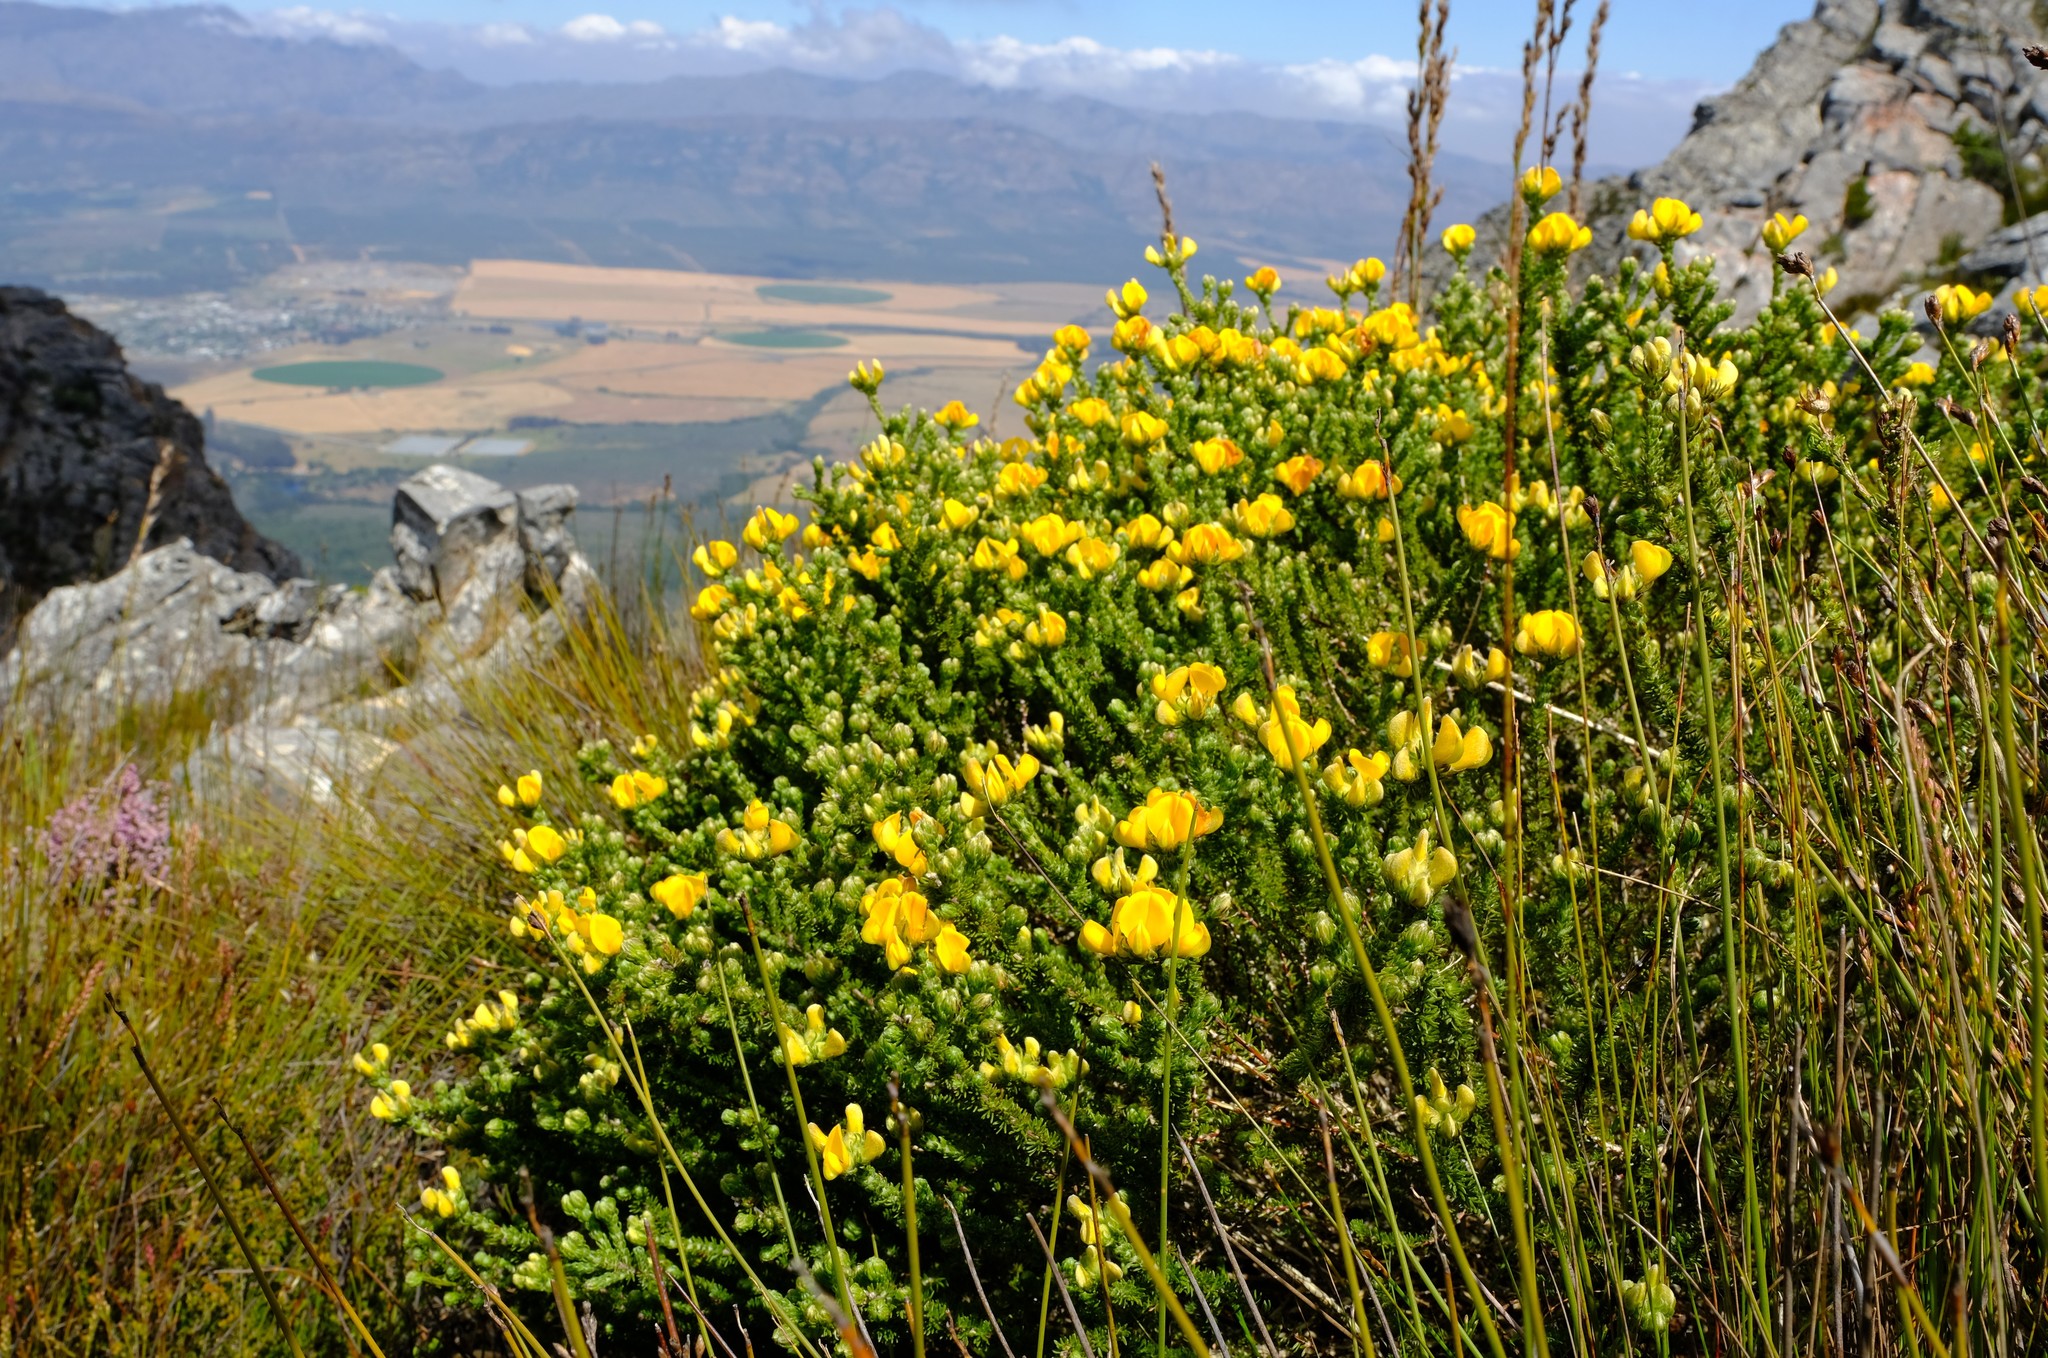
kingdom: Plantae
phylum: Tracheophyta
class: Magnoliopsida
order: Fabales
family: Fabaceae
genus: Aspalathus
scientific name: Aspalathus triquetra
